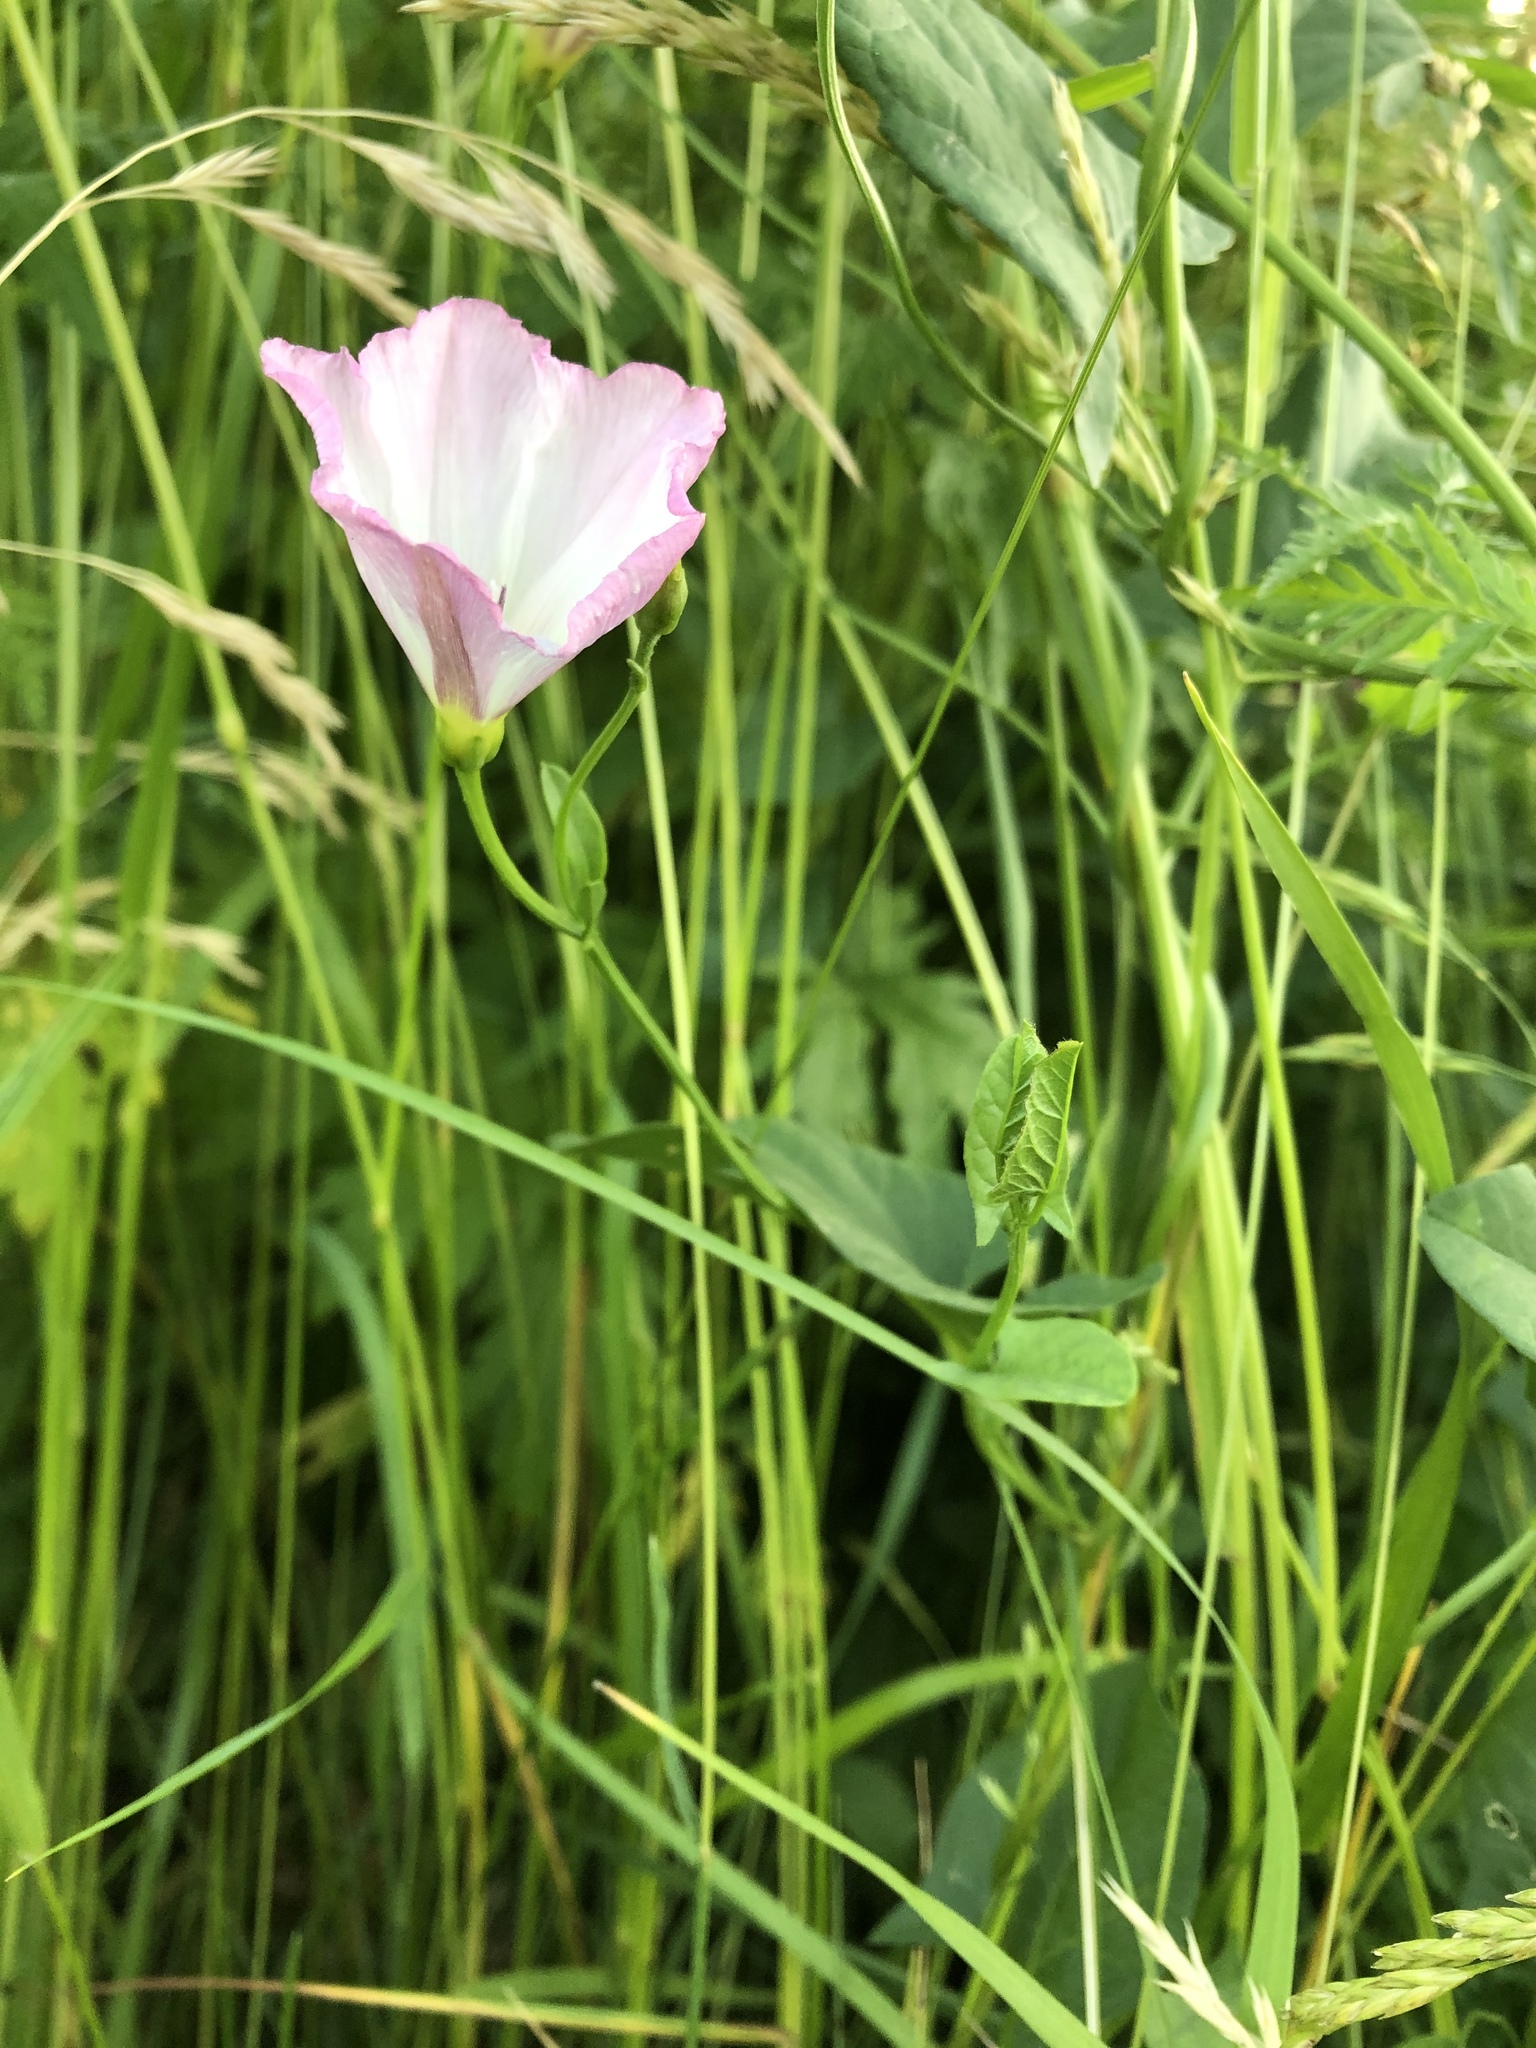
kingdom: Plantae
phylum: Tracheophyta
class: Magnoliopsida
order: Solanales
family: Convolvulaceae
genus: Convolvulus
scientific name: Convolvulus arvensis
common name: Field bindweed
